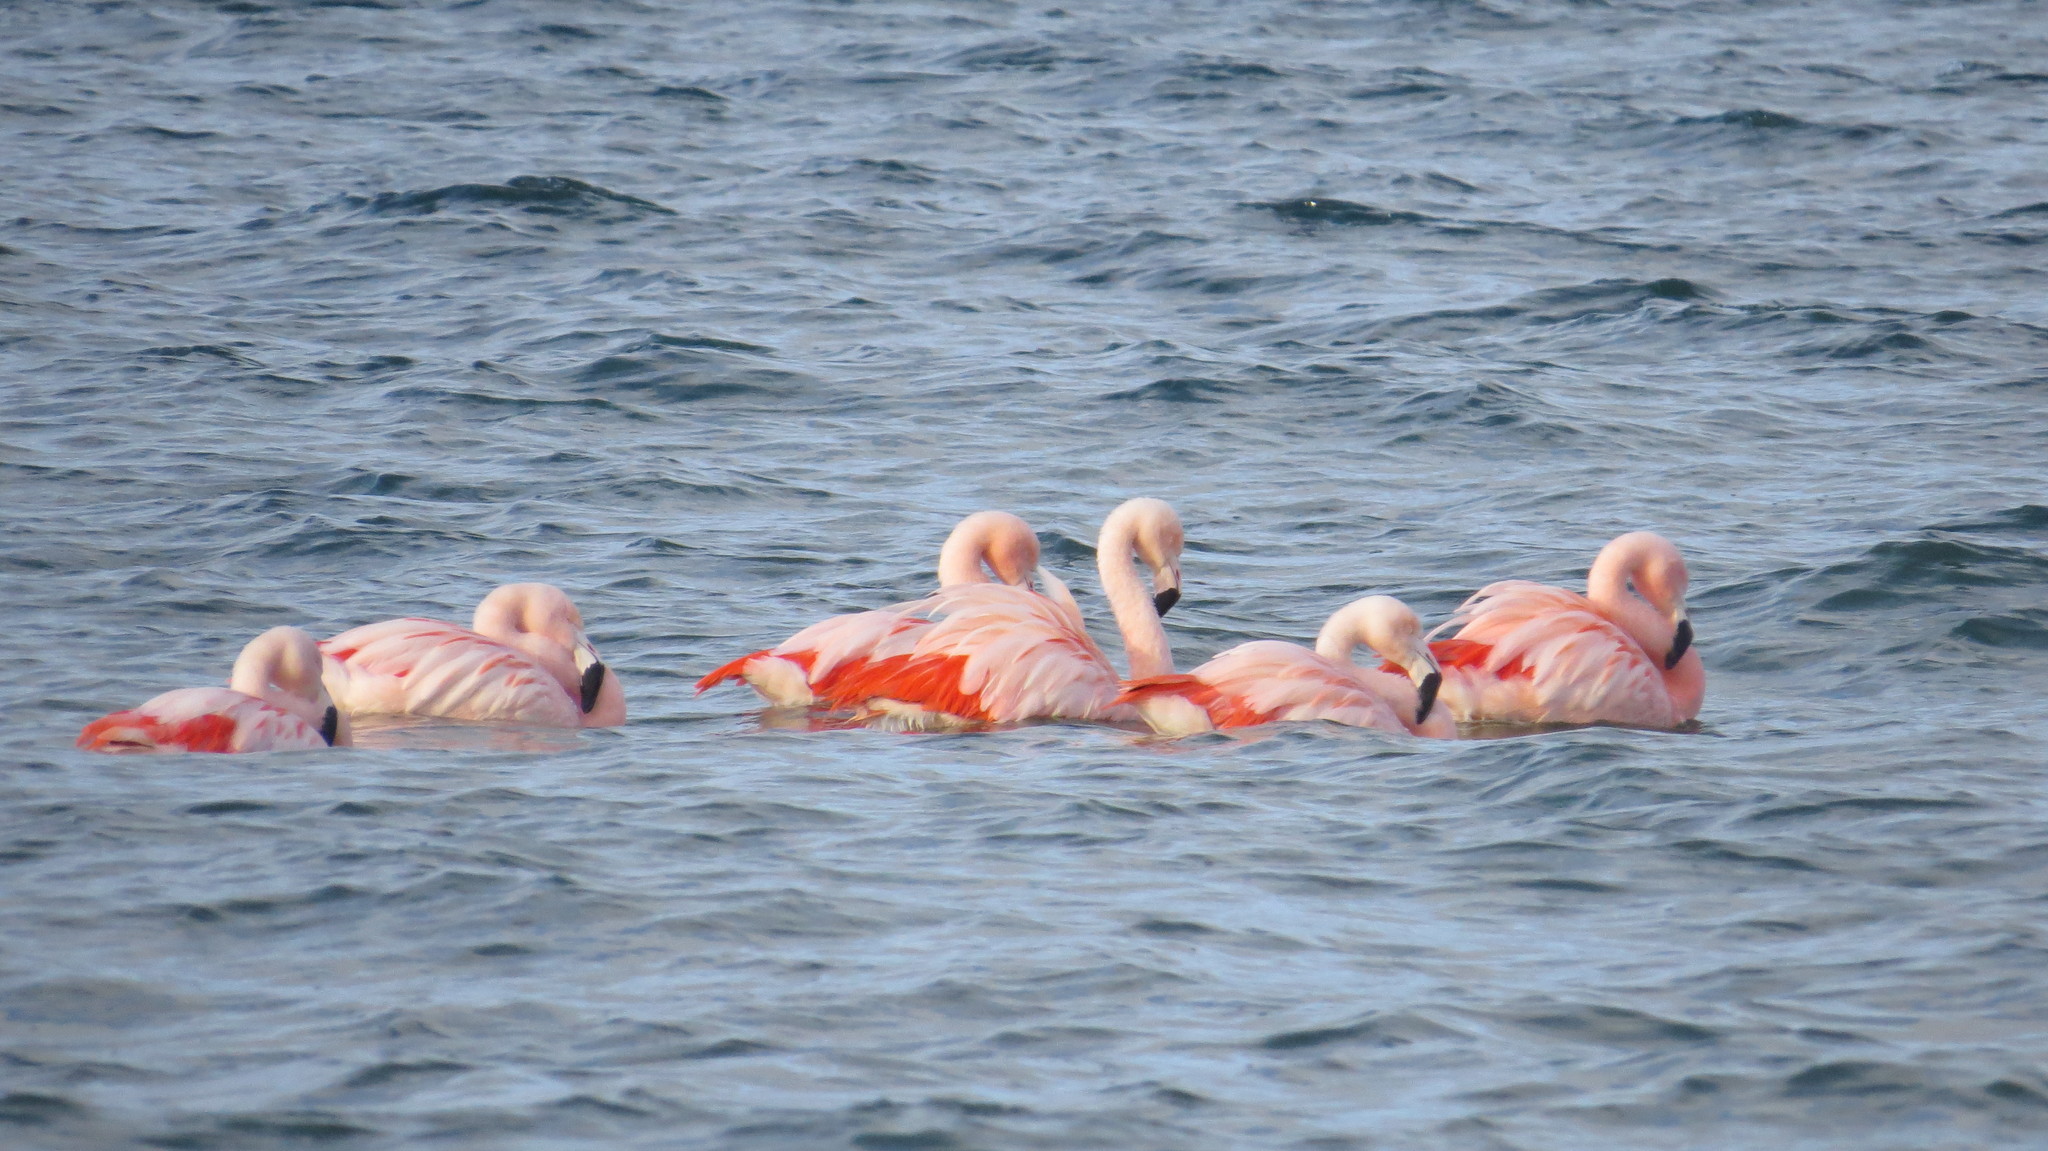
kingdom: Animalia
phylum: Chordata
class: Aves
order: Phoenicopteriformes
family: Phoenicopteridae
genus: Phoenicopterus
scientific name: Phoenicopterus chilensis
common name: Chilean flamingo
